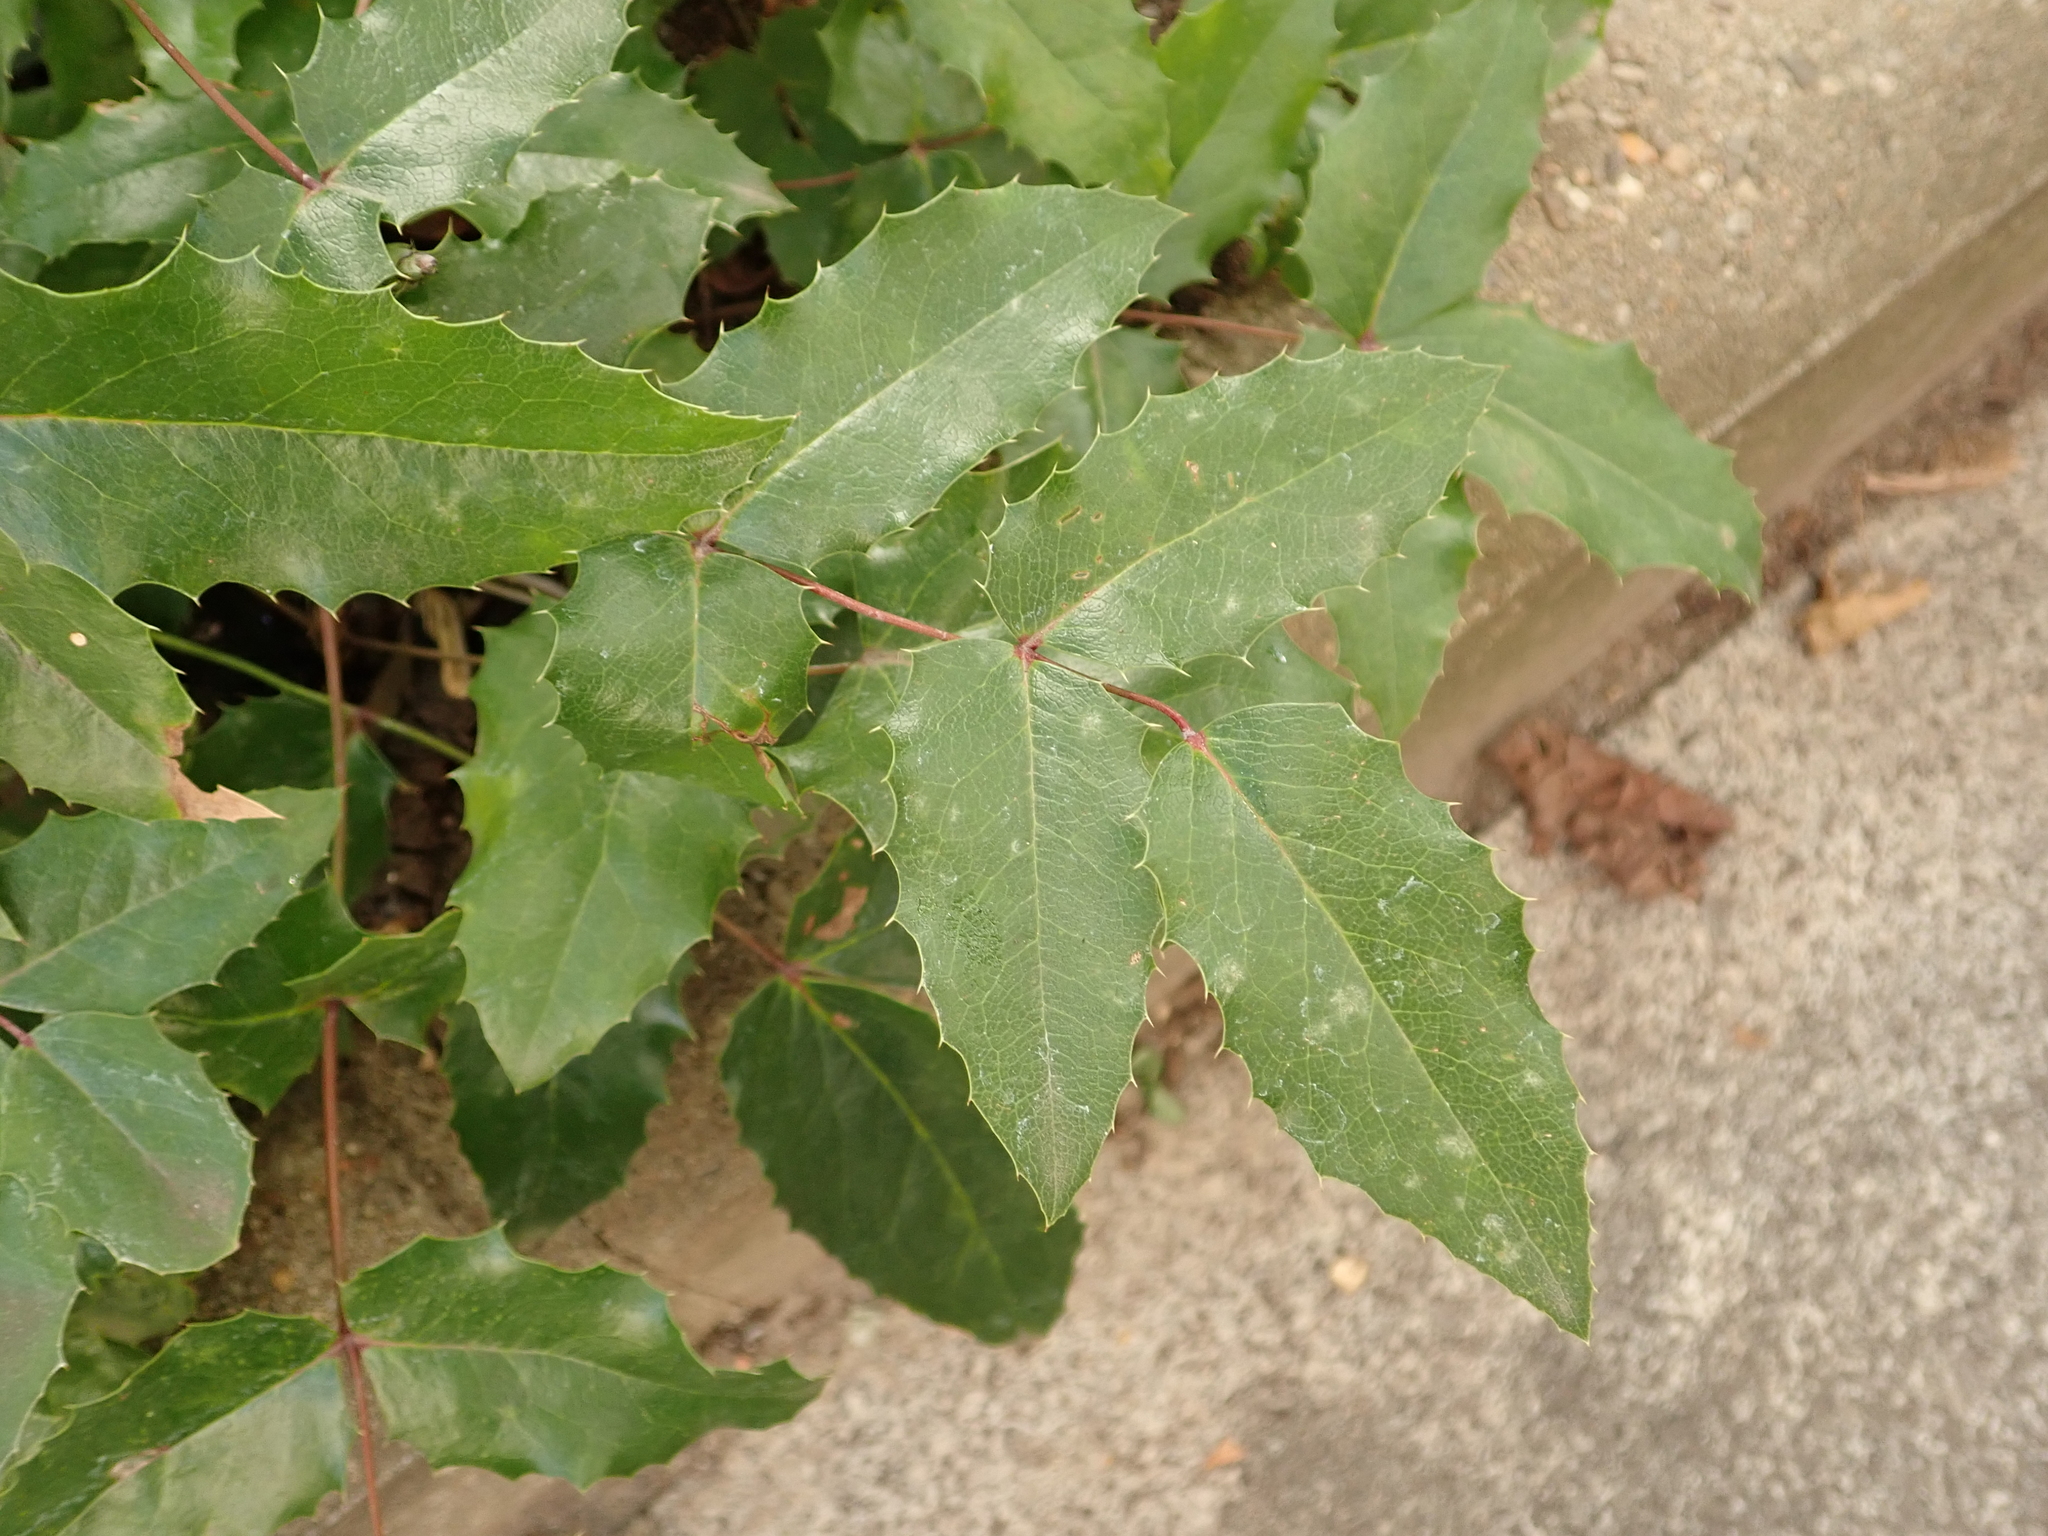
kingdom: Plantae
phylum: Tracheophyta
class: Magnoliopsida
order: Ranunculales
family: Berberidaceae
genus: Mahonia
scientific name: Mahonia aquifolium
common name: Oregon-grape
